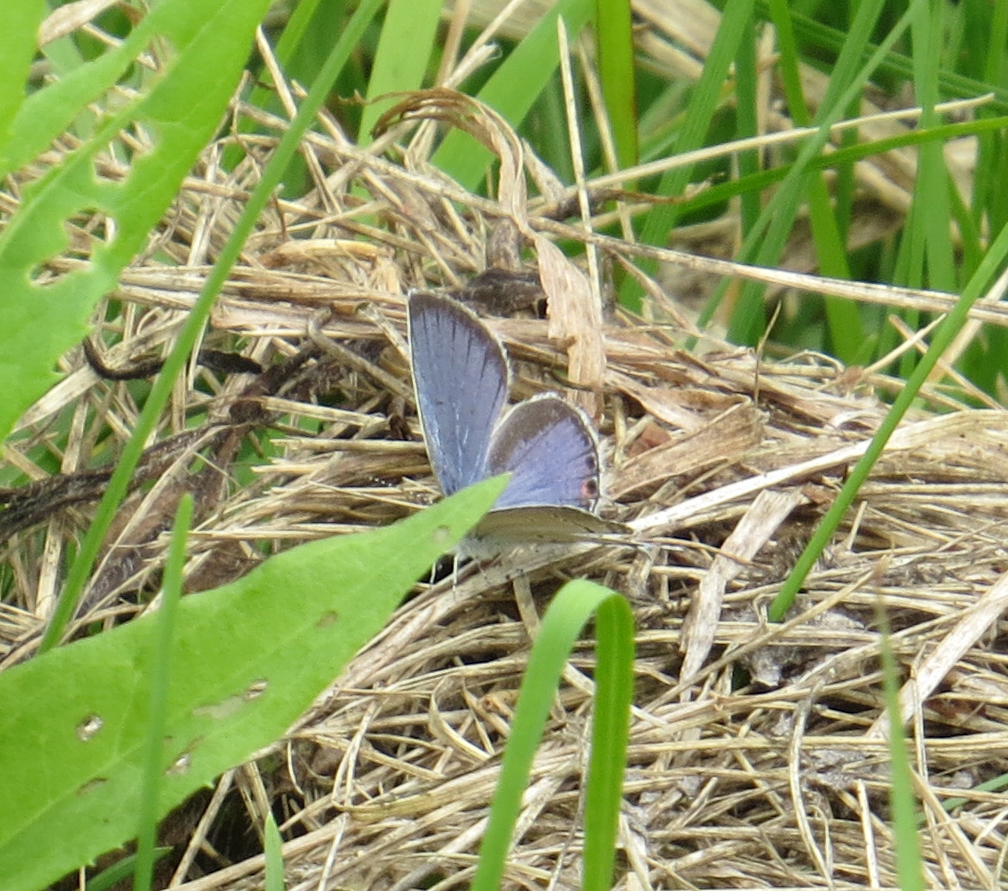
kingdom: Animalia
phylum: Arthropoda
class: Insecta
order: Lepidoptera
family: Lycaenidae
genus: Elkalyce
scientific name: Elkalyce comyntas
